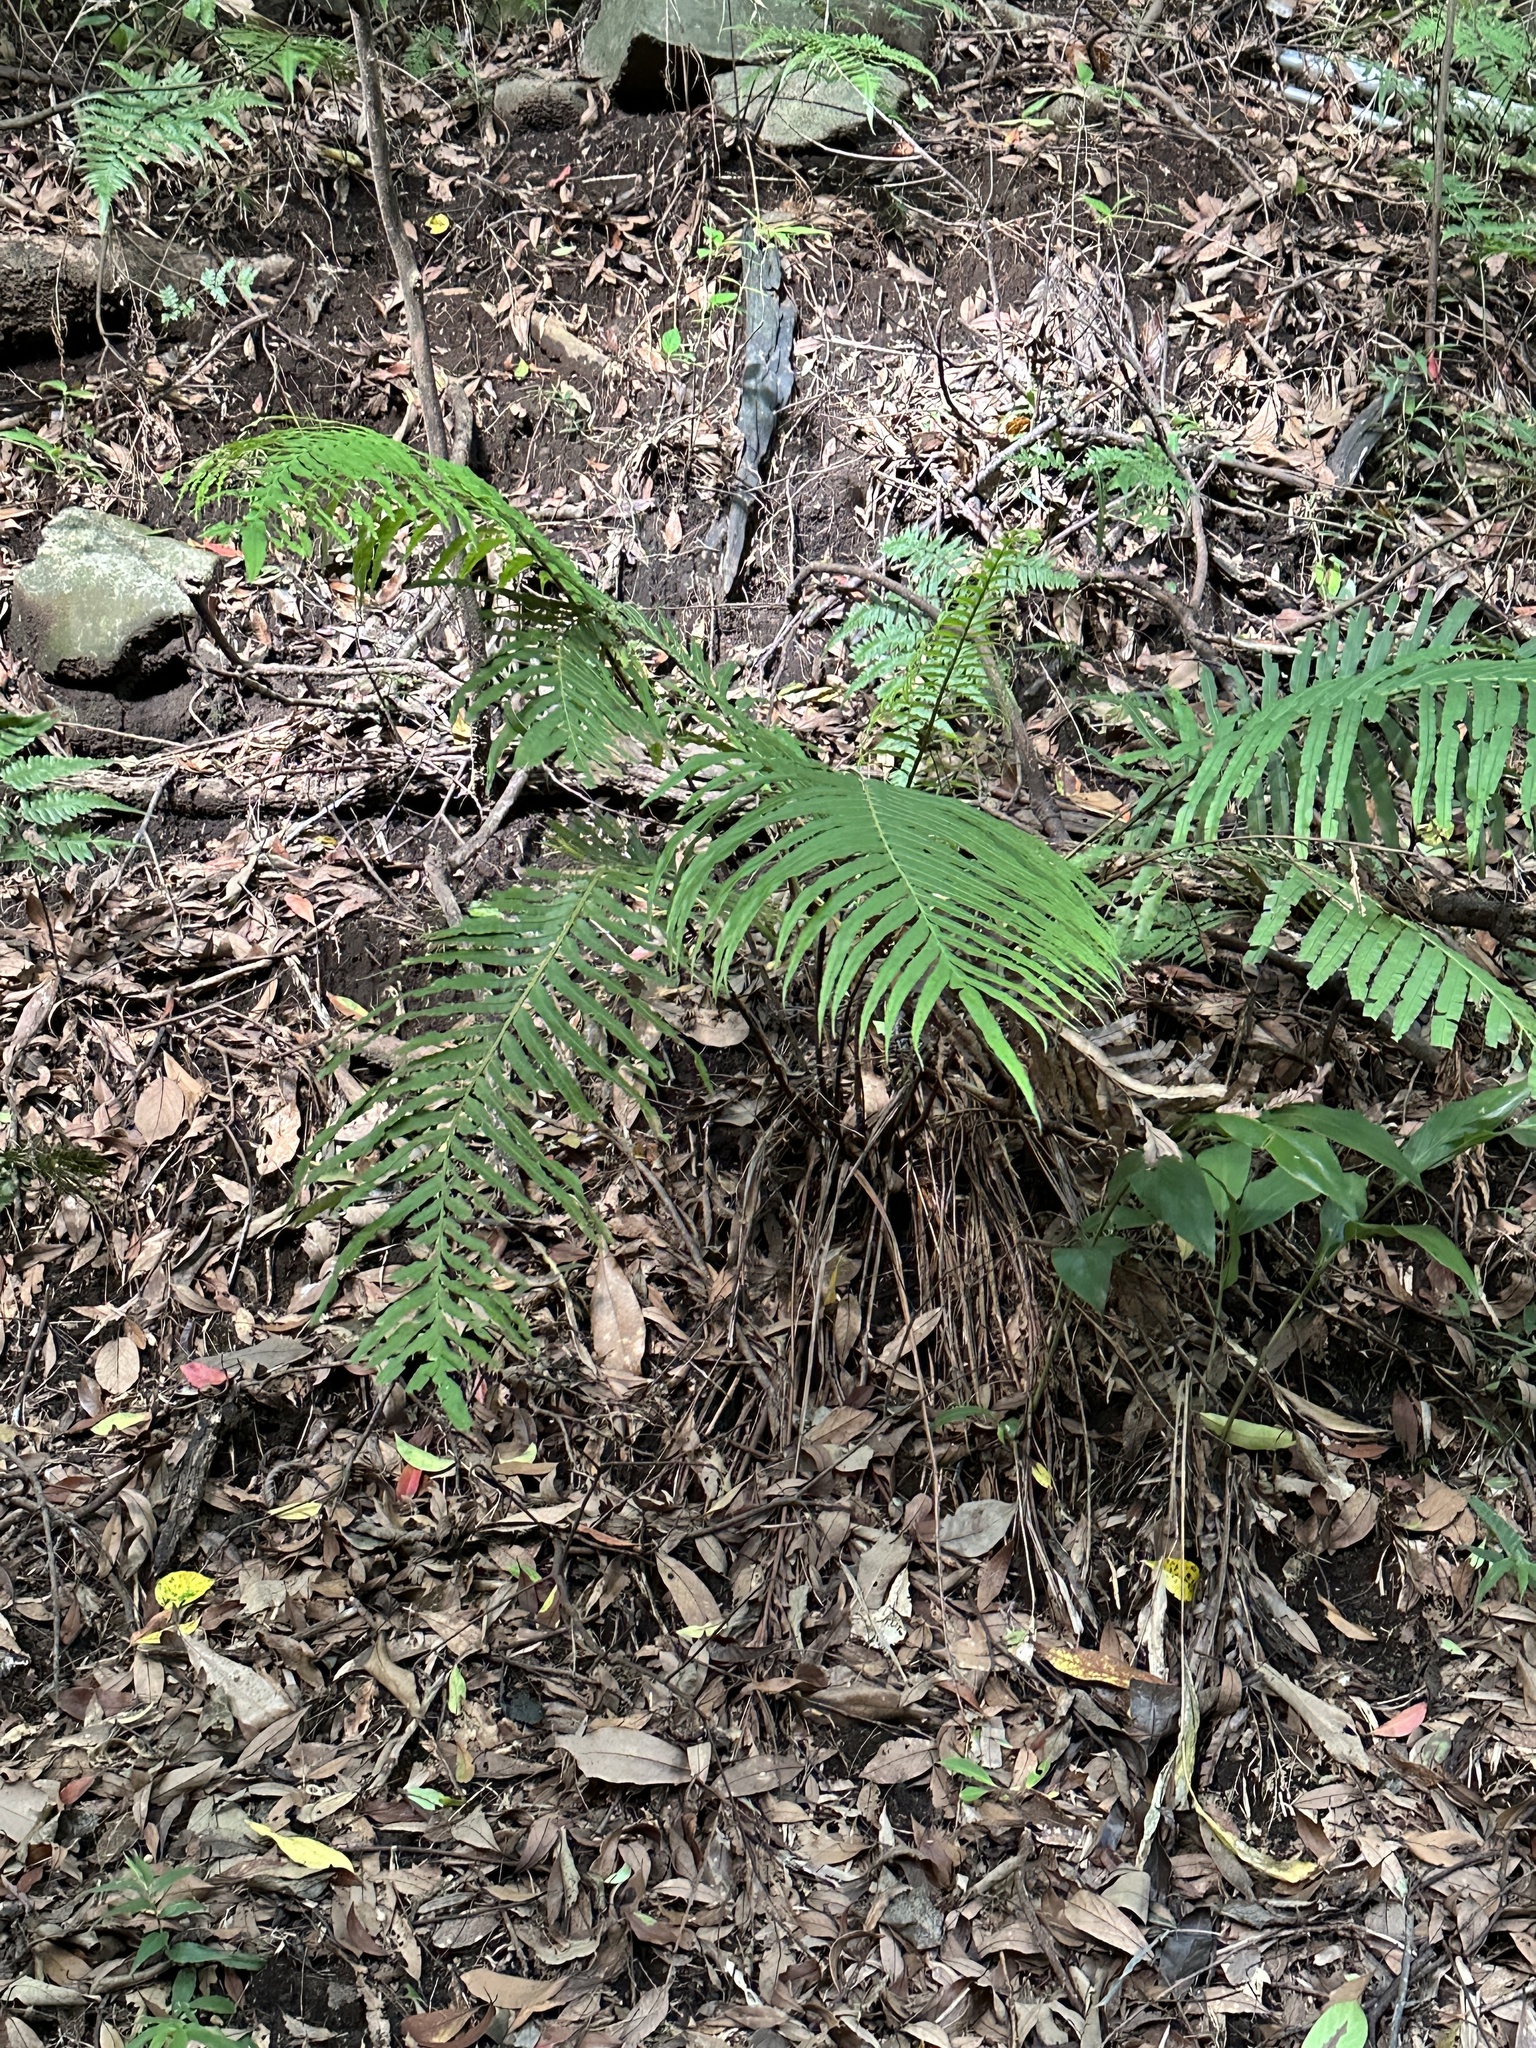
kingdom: Plantae
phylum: Tracheophyta
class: Polypodiopsida
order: Polypodiales
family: Blechnaceae
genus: Blechnopsis
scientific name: Blechnopsis orientalis
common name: Oriental blechnum
